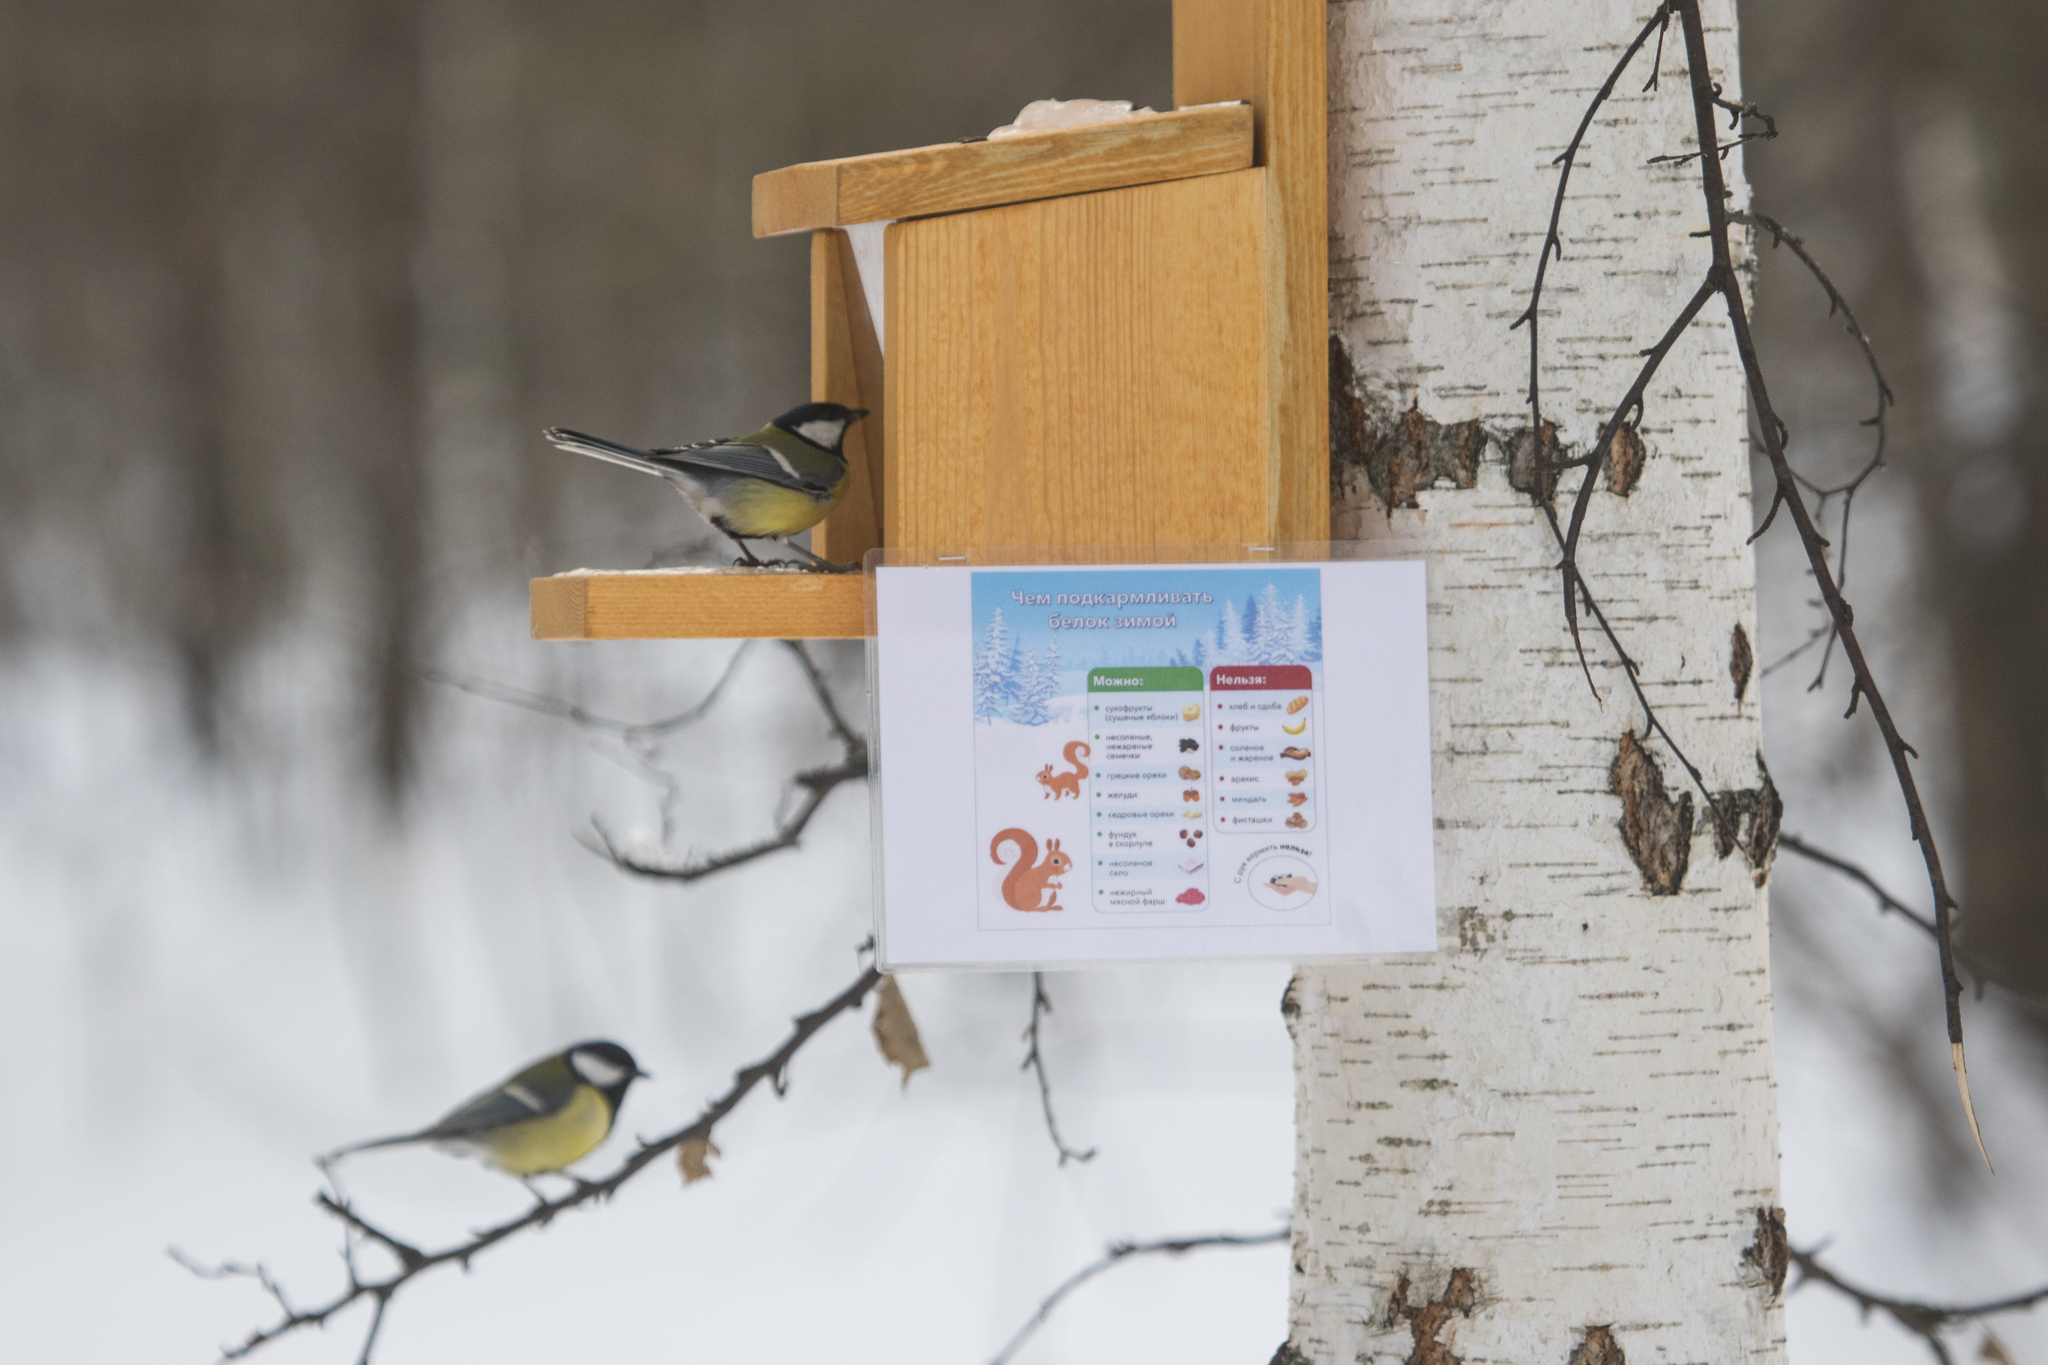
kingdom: Animalia
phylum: Chordata
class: Aves
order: Passeriformes
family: Paridae
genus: Parus
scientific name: Parus major
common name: Great tit
